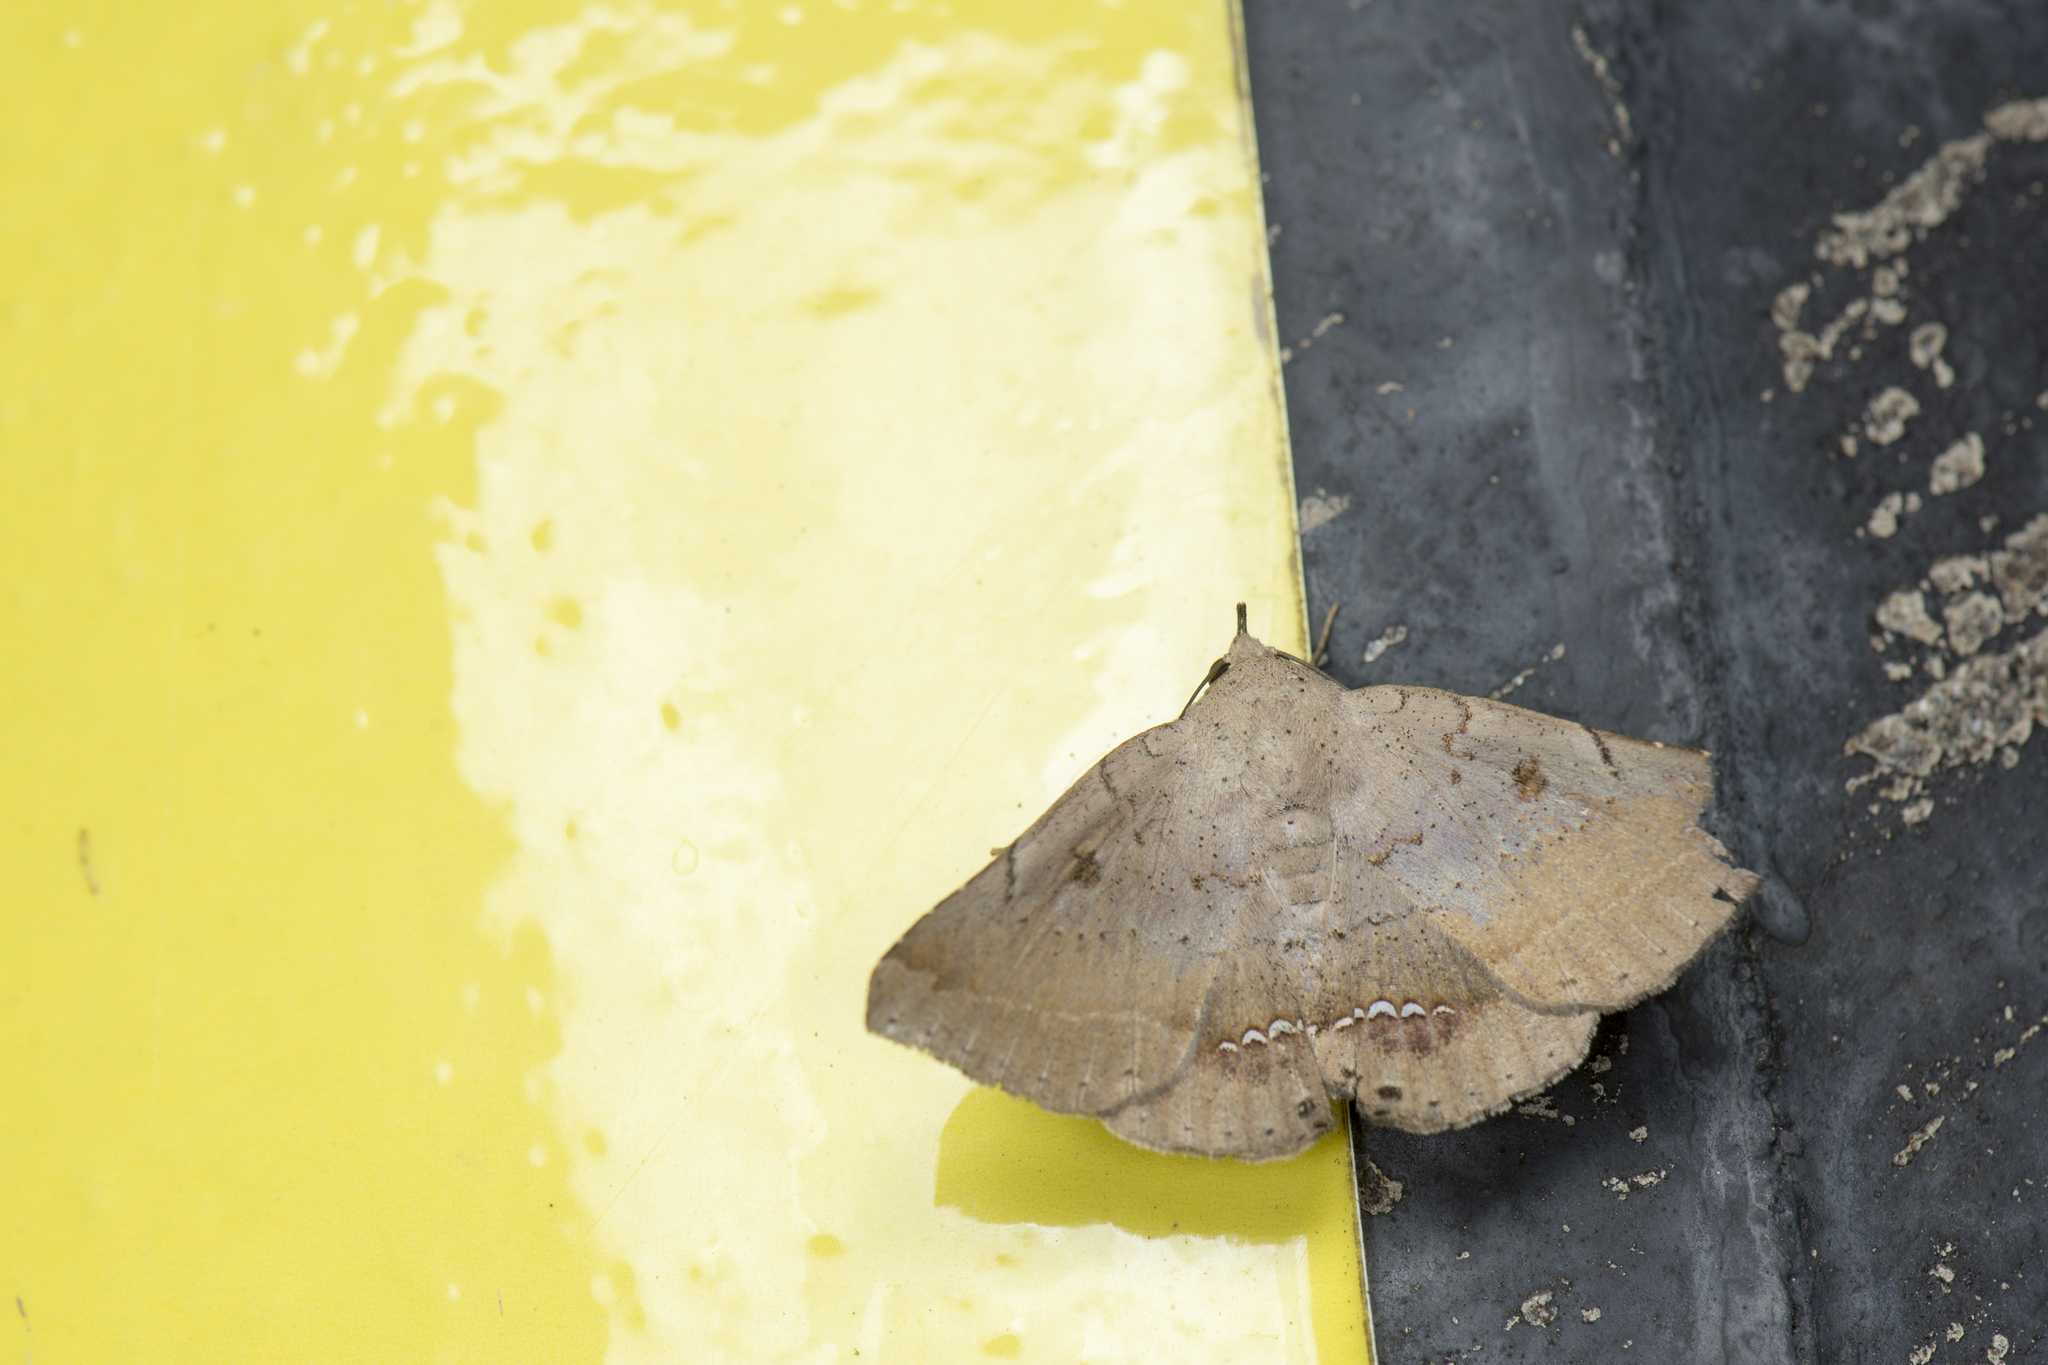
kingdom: Animalia
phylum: Arthropoda
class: Insecta
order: Lepidoptera
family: Erebidae
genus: Macaldenia
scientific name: Macaldenia palumba
